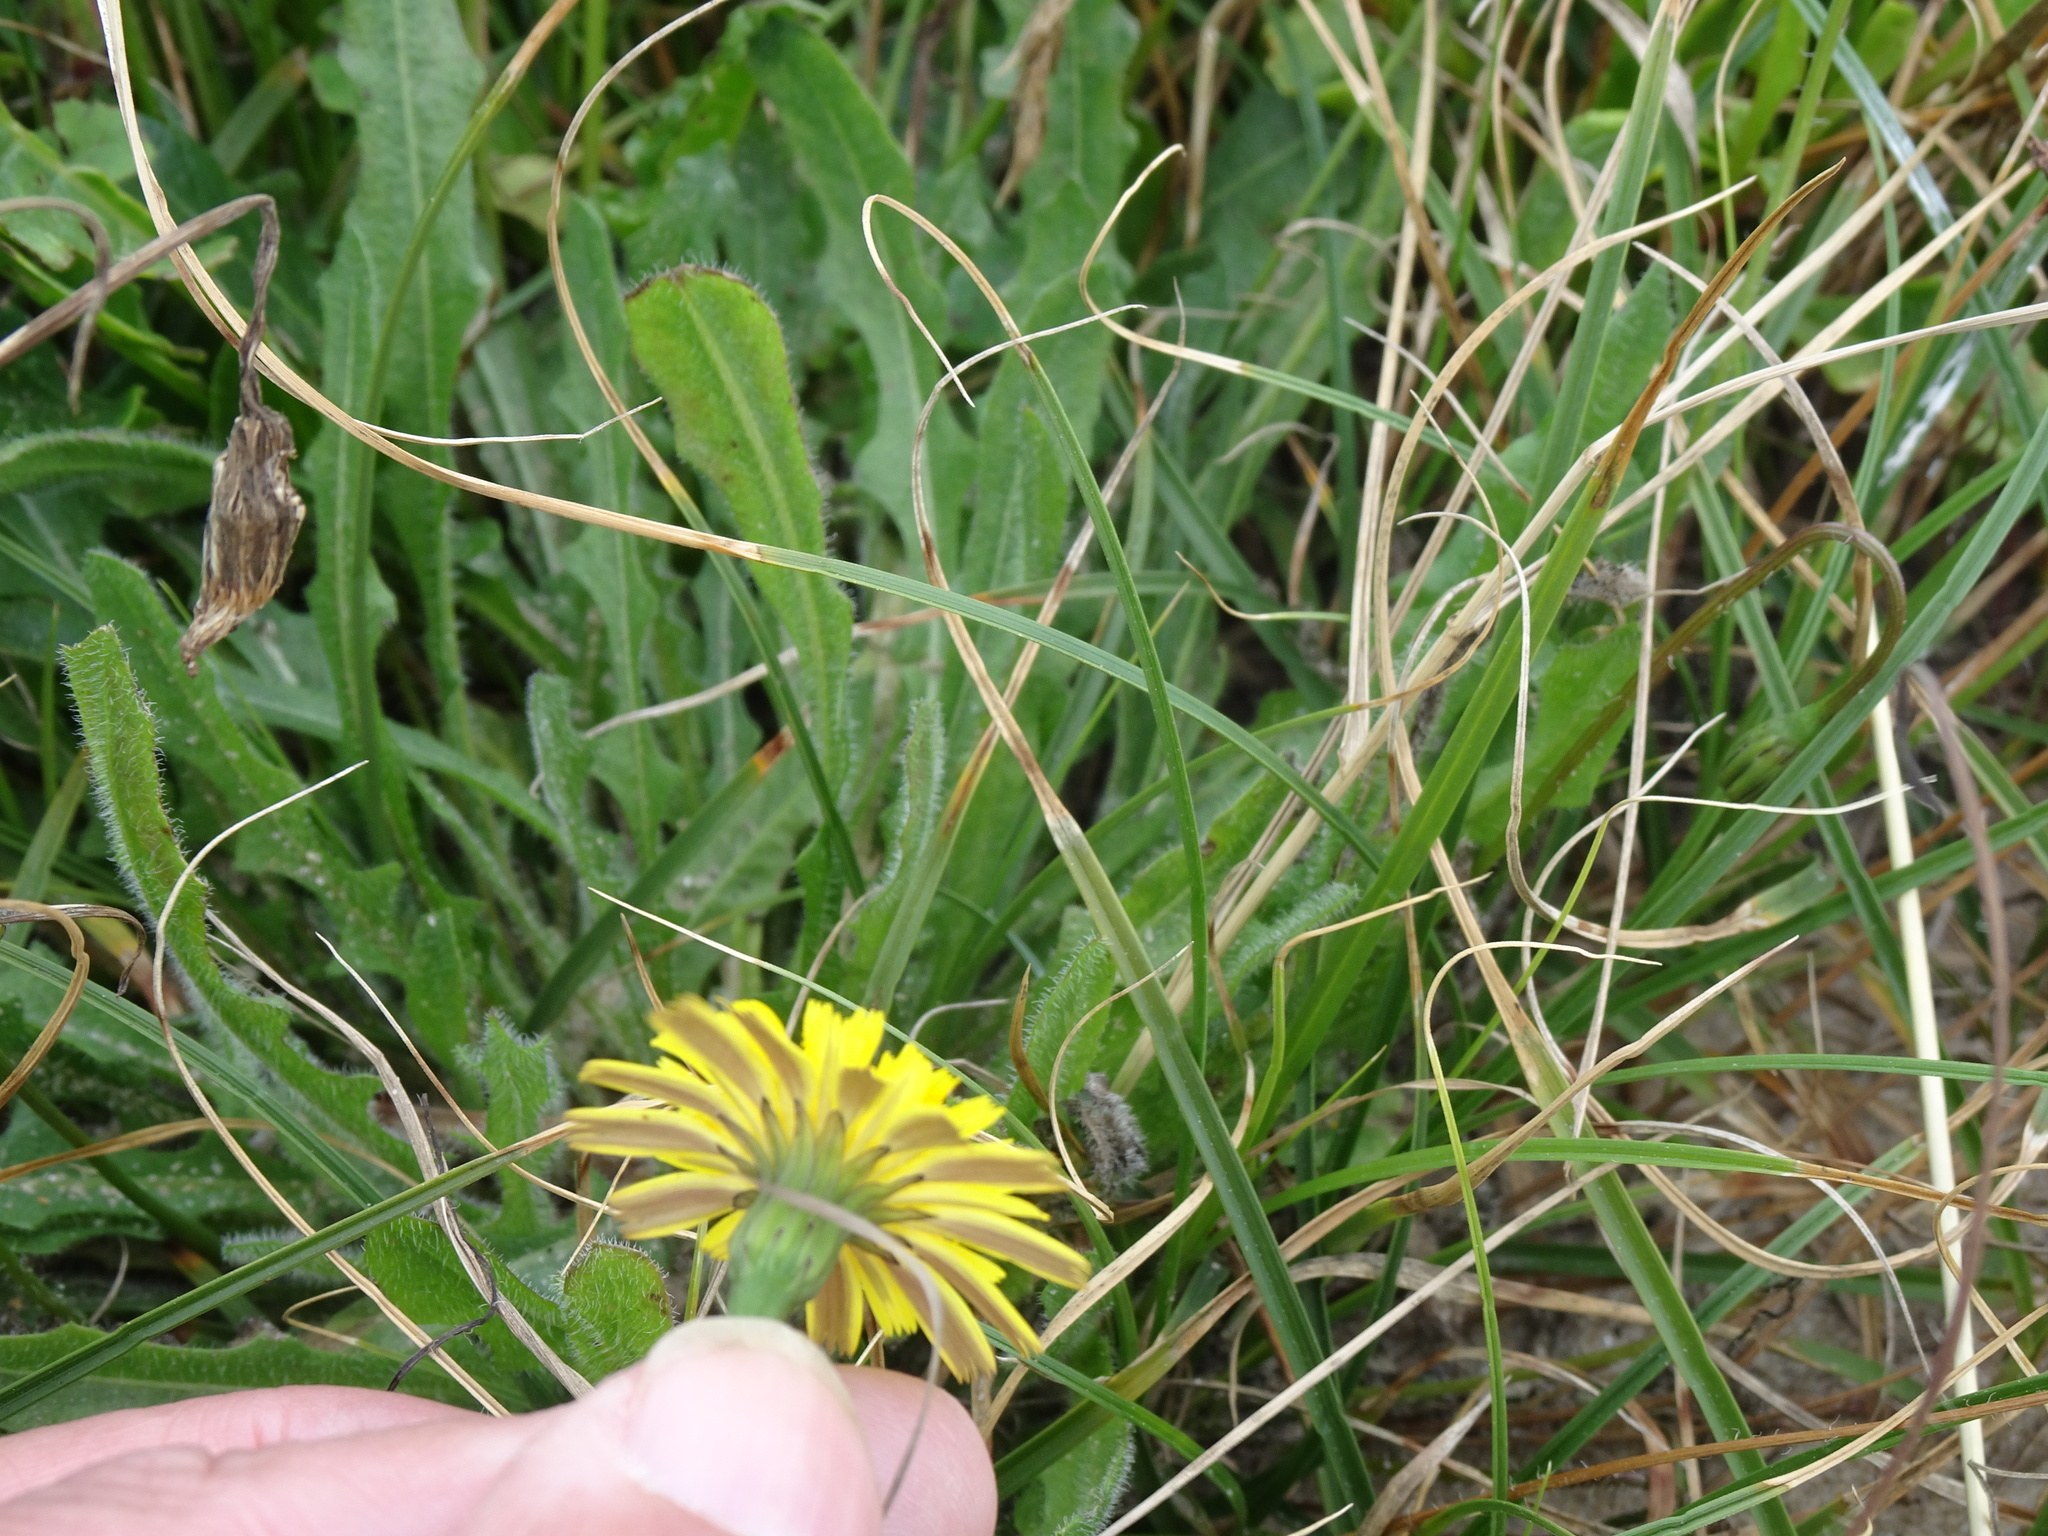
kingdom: Plantae
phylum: Tracheophyta
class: Magnoliopsida
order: Asterales
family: Asteraceae
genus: Hypochaeris
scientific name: Hypochaeris radicata
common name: Flatweed
